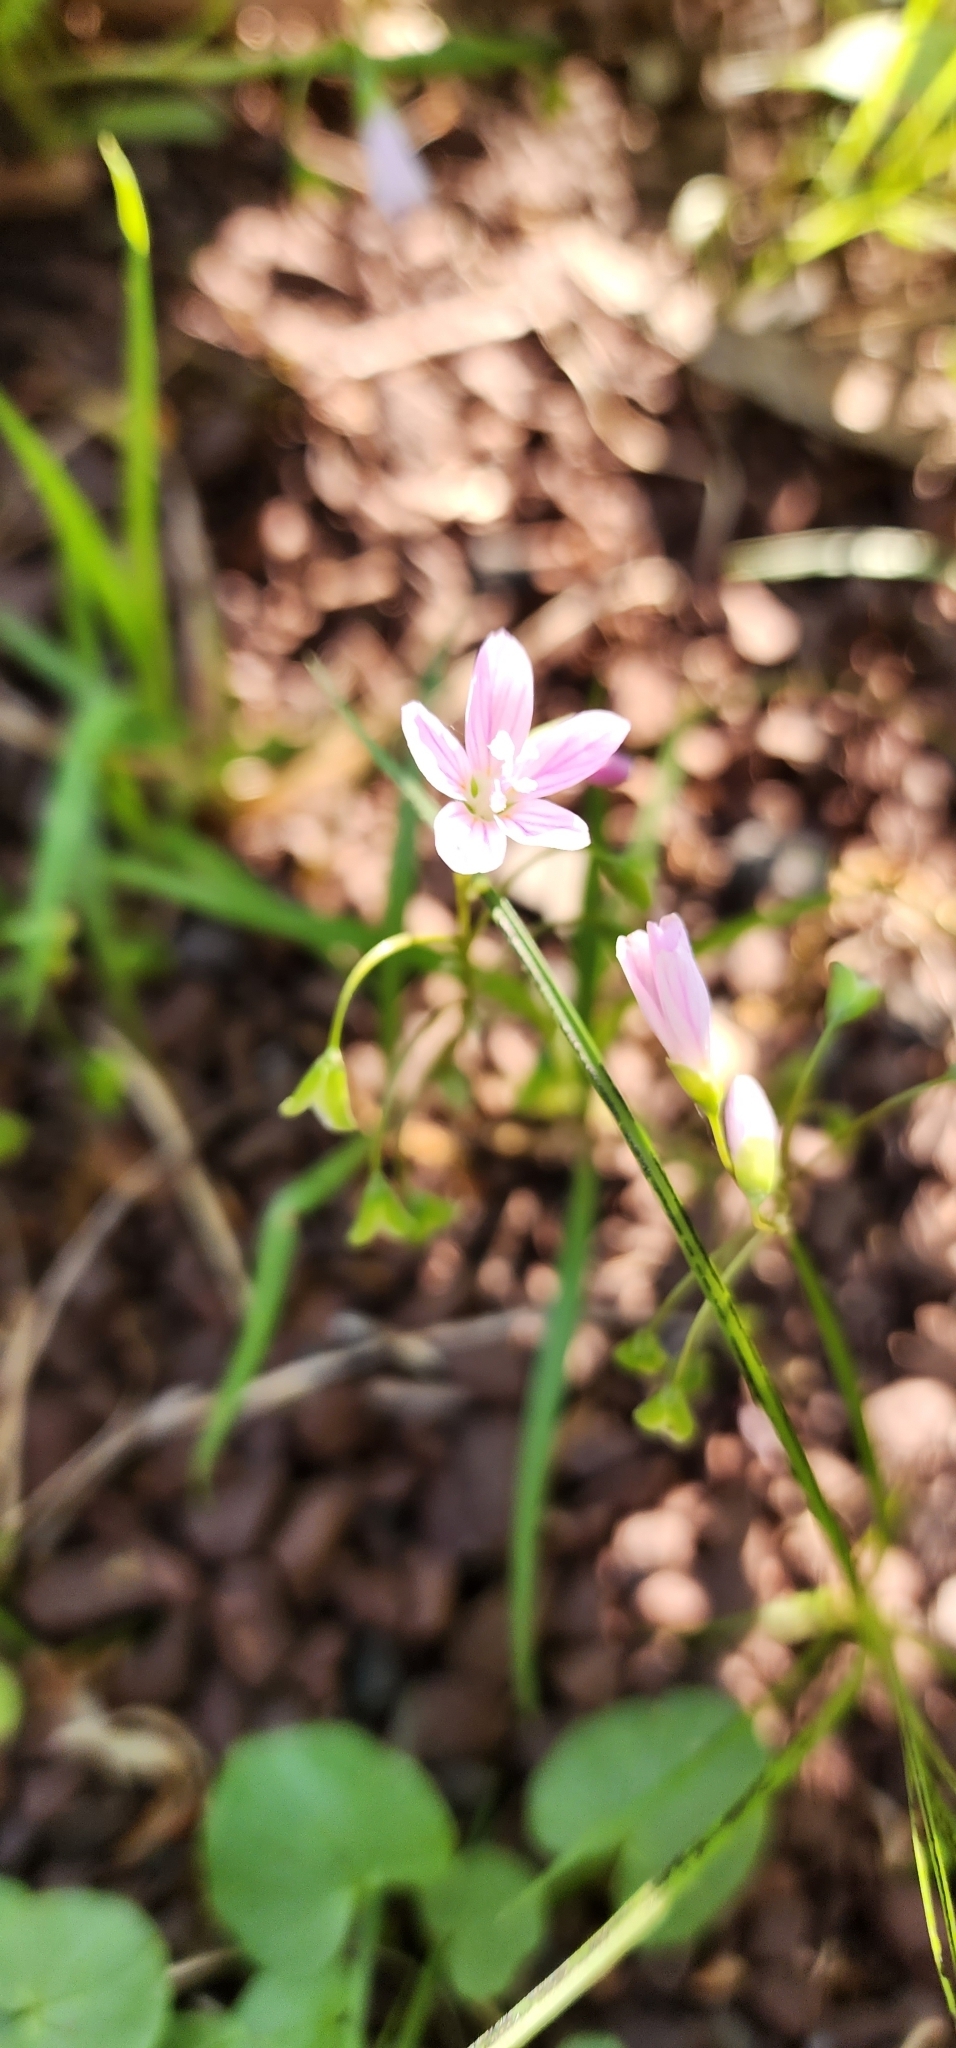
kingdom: Plantae
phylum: Tracheophyta
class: Magnoliopsida
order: Caryophyllales
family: Montiaceae
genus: Claytonia
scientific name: Claytonia virginica
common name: Virginia springbeauty
